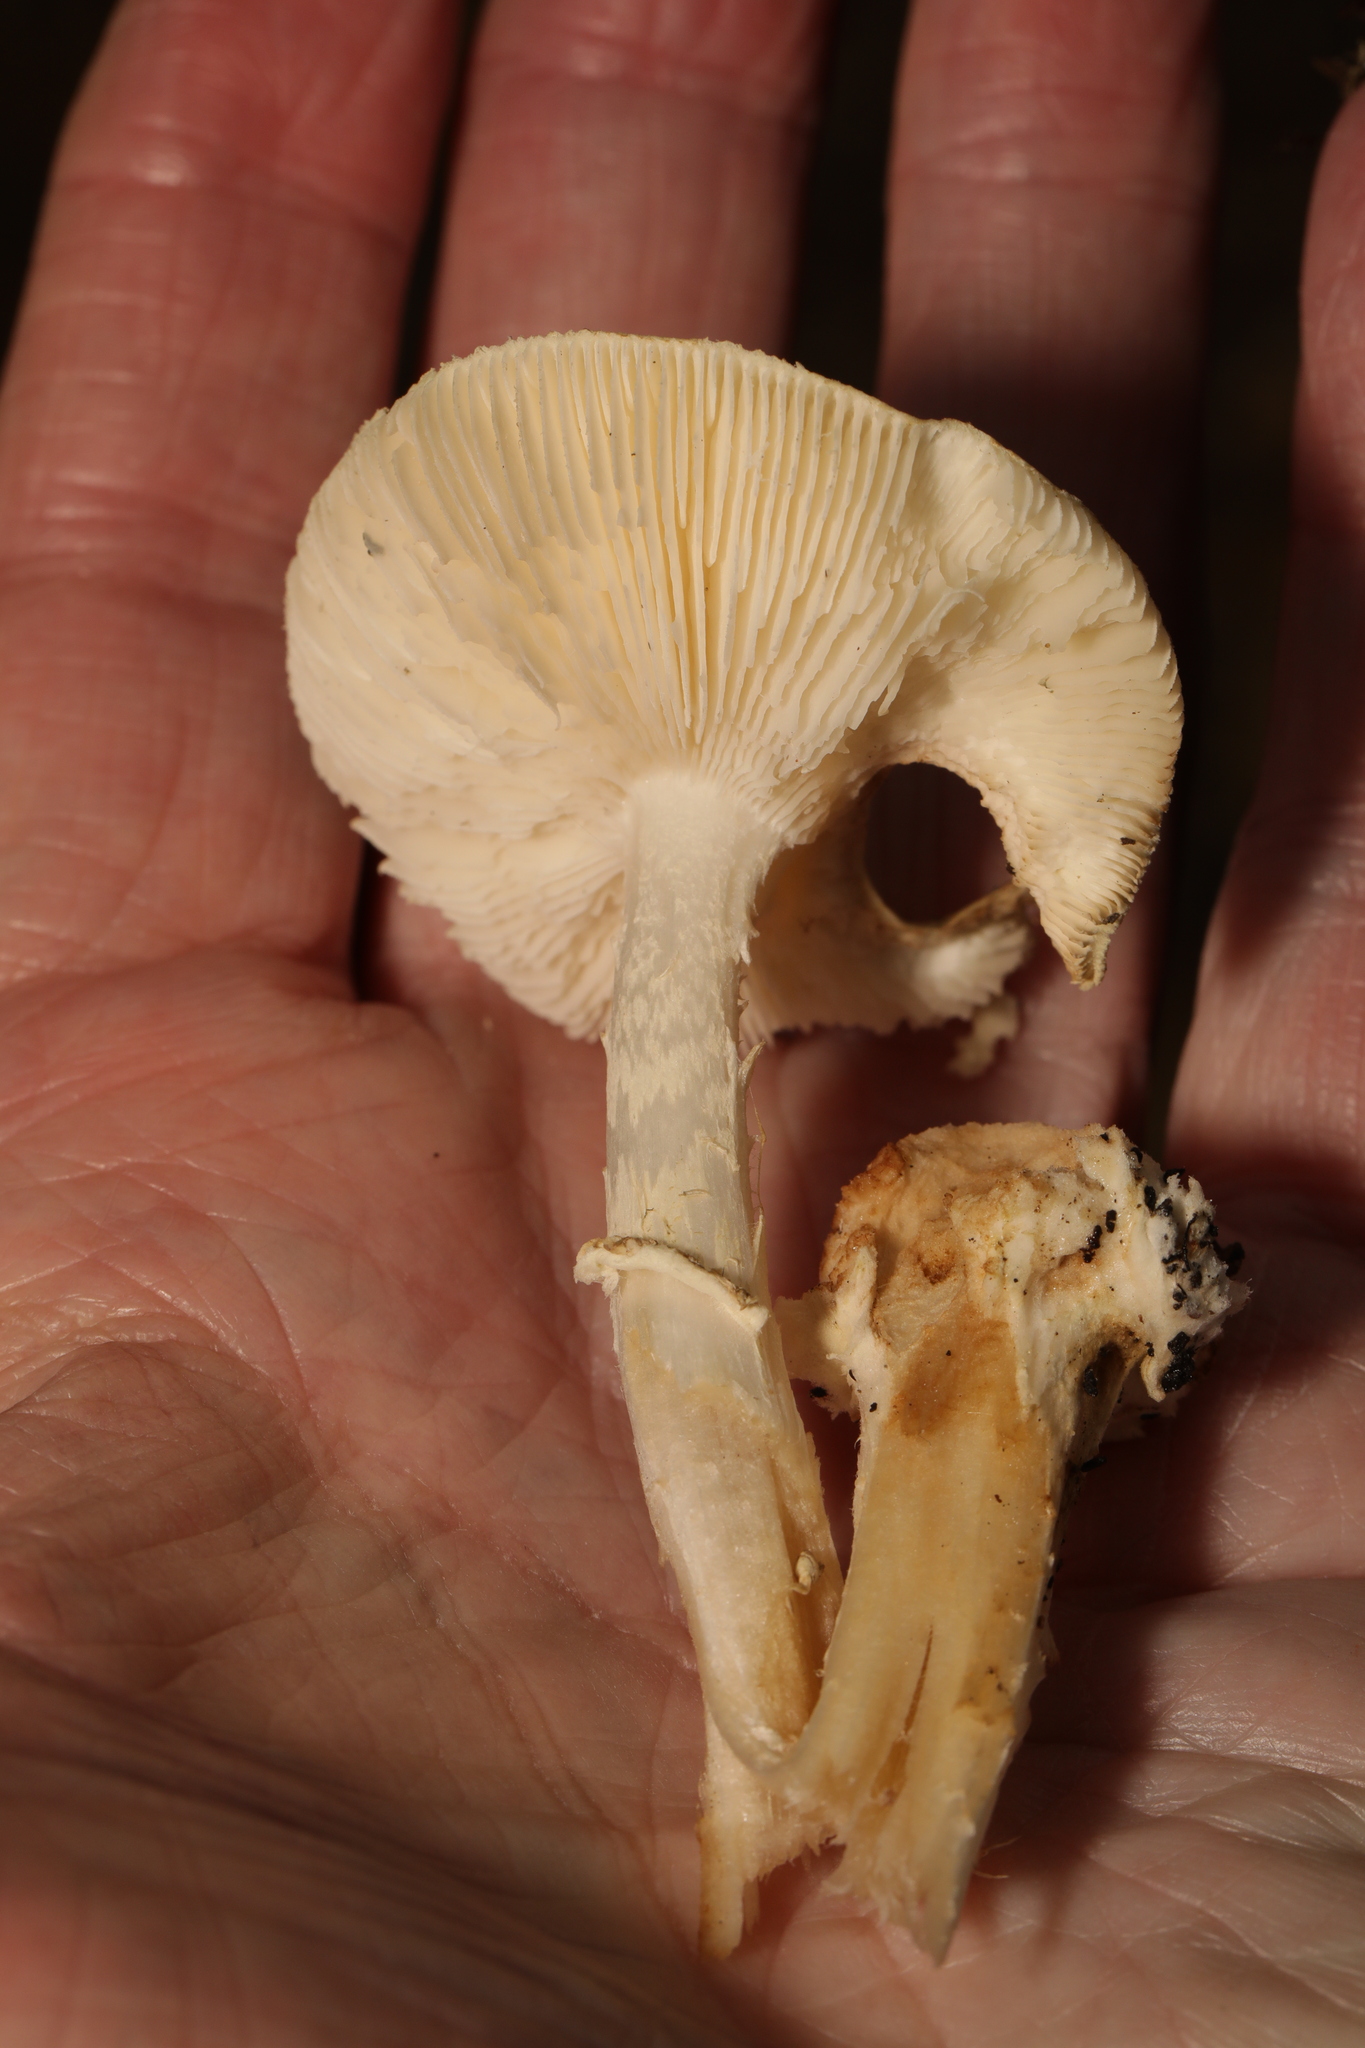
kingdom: Fungi
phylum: Basidiomycota
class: Agaricomycetes
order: Agaricales
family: Amanitaceae
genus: Amanita
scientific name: Amanita citrina
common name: False death-cap
